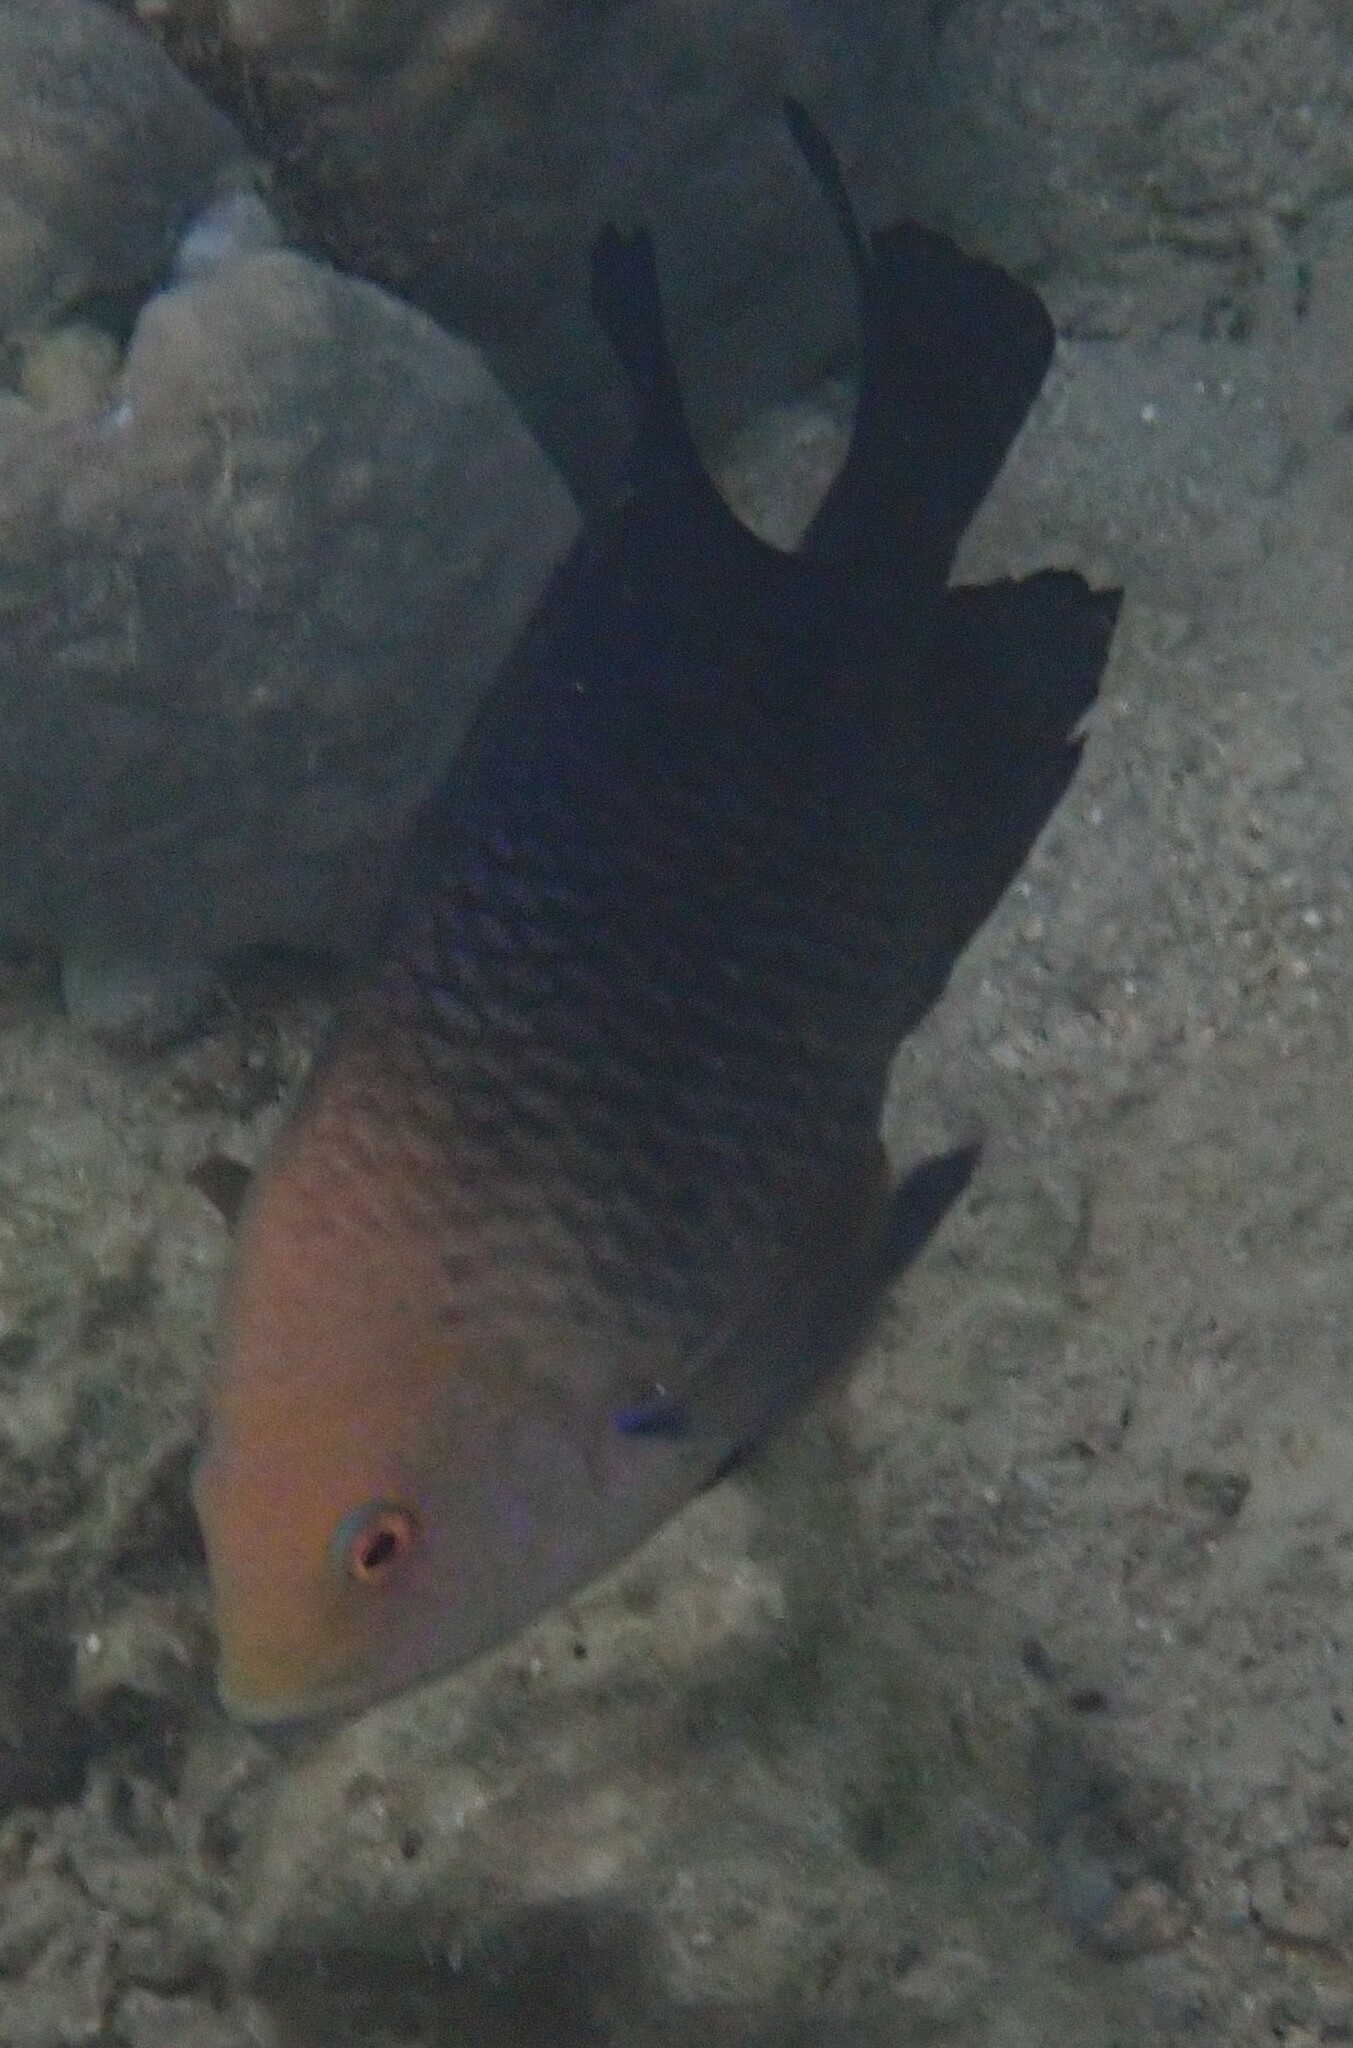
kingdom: Animalia
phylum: Chordata
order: Perciformes
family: Pomacentridae
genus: Hemiglyphidodon
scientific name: Hemiglyphidodon plagiometopon
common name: Lagoon damsel
